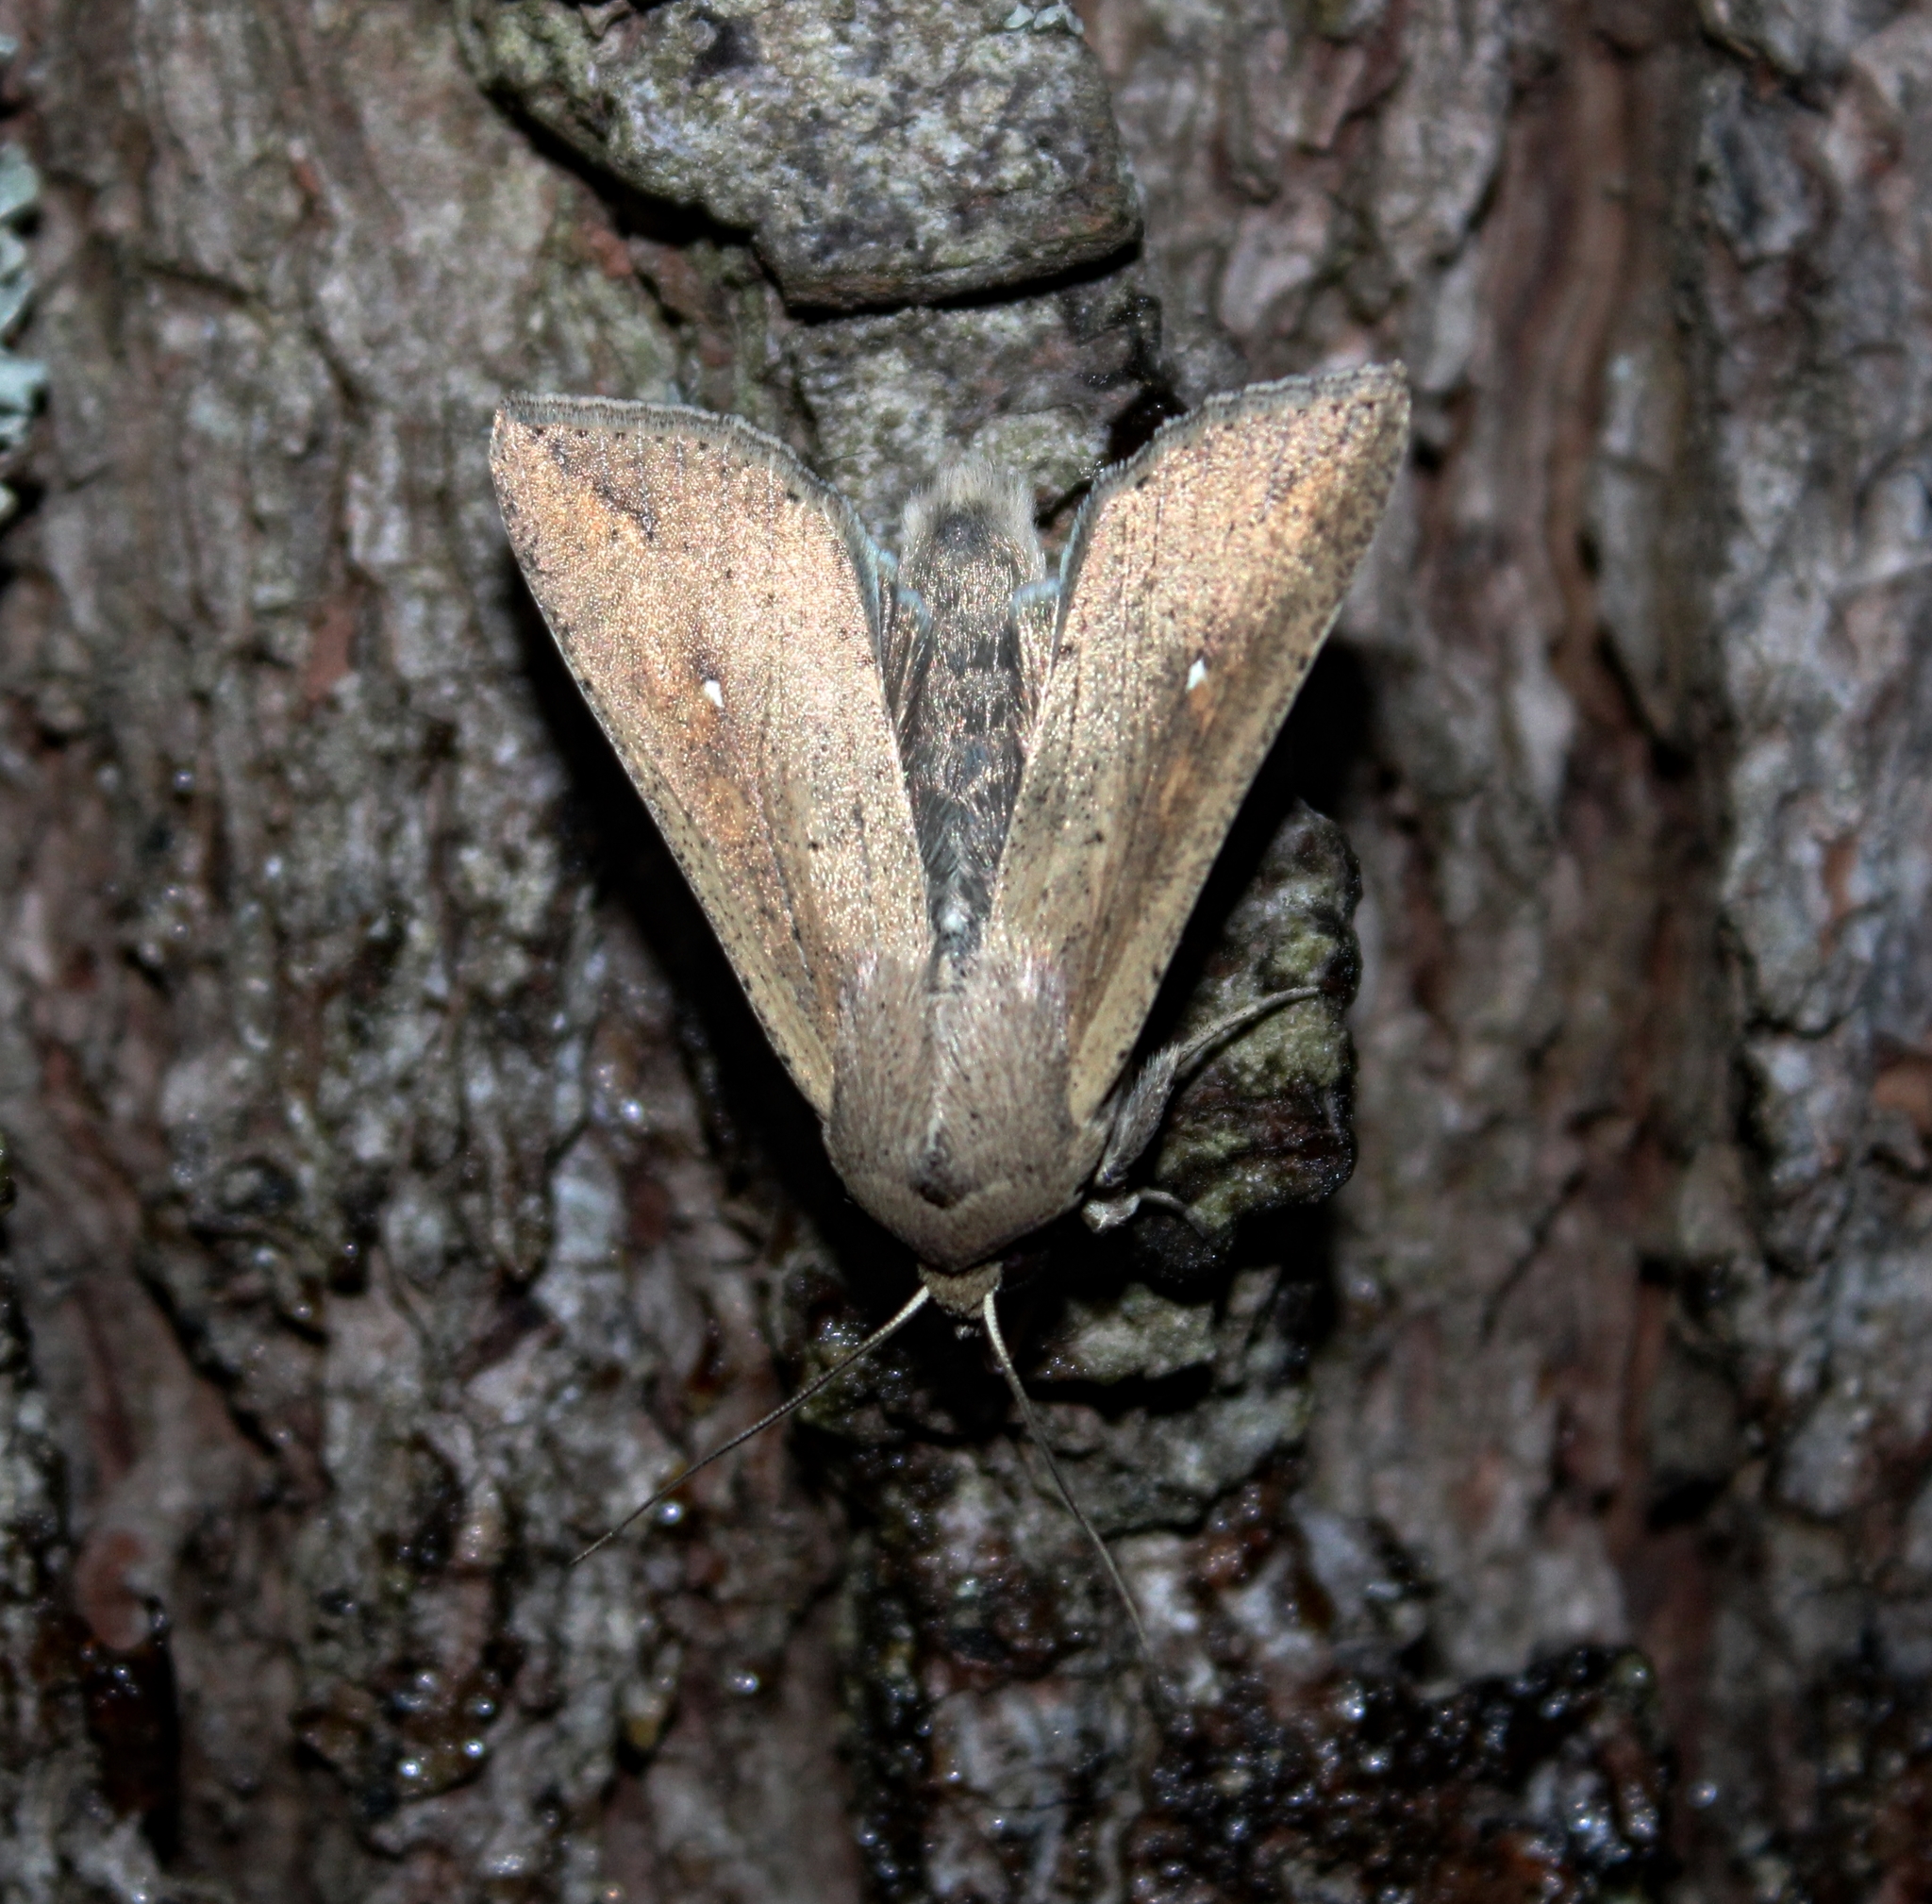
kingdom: Animalia
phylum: Arthropoda
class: Insecta
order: Lepidoptera
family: Noctuidae
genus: Mythimna
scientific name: Mythimna unipuncta
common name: White-speck
